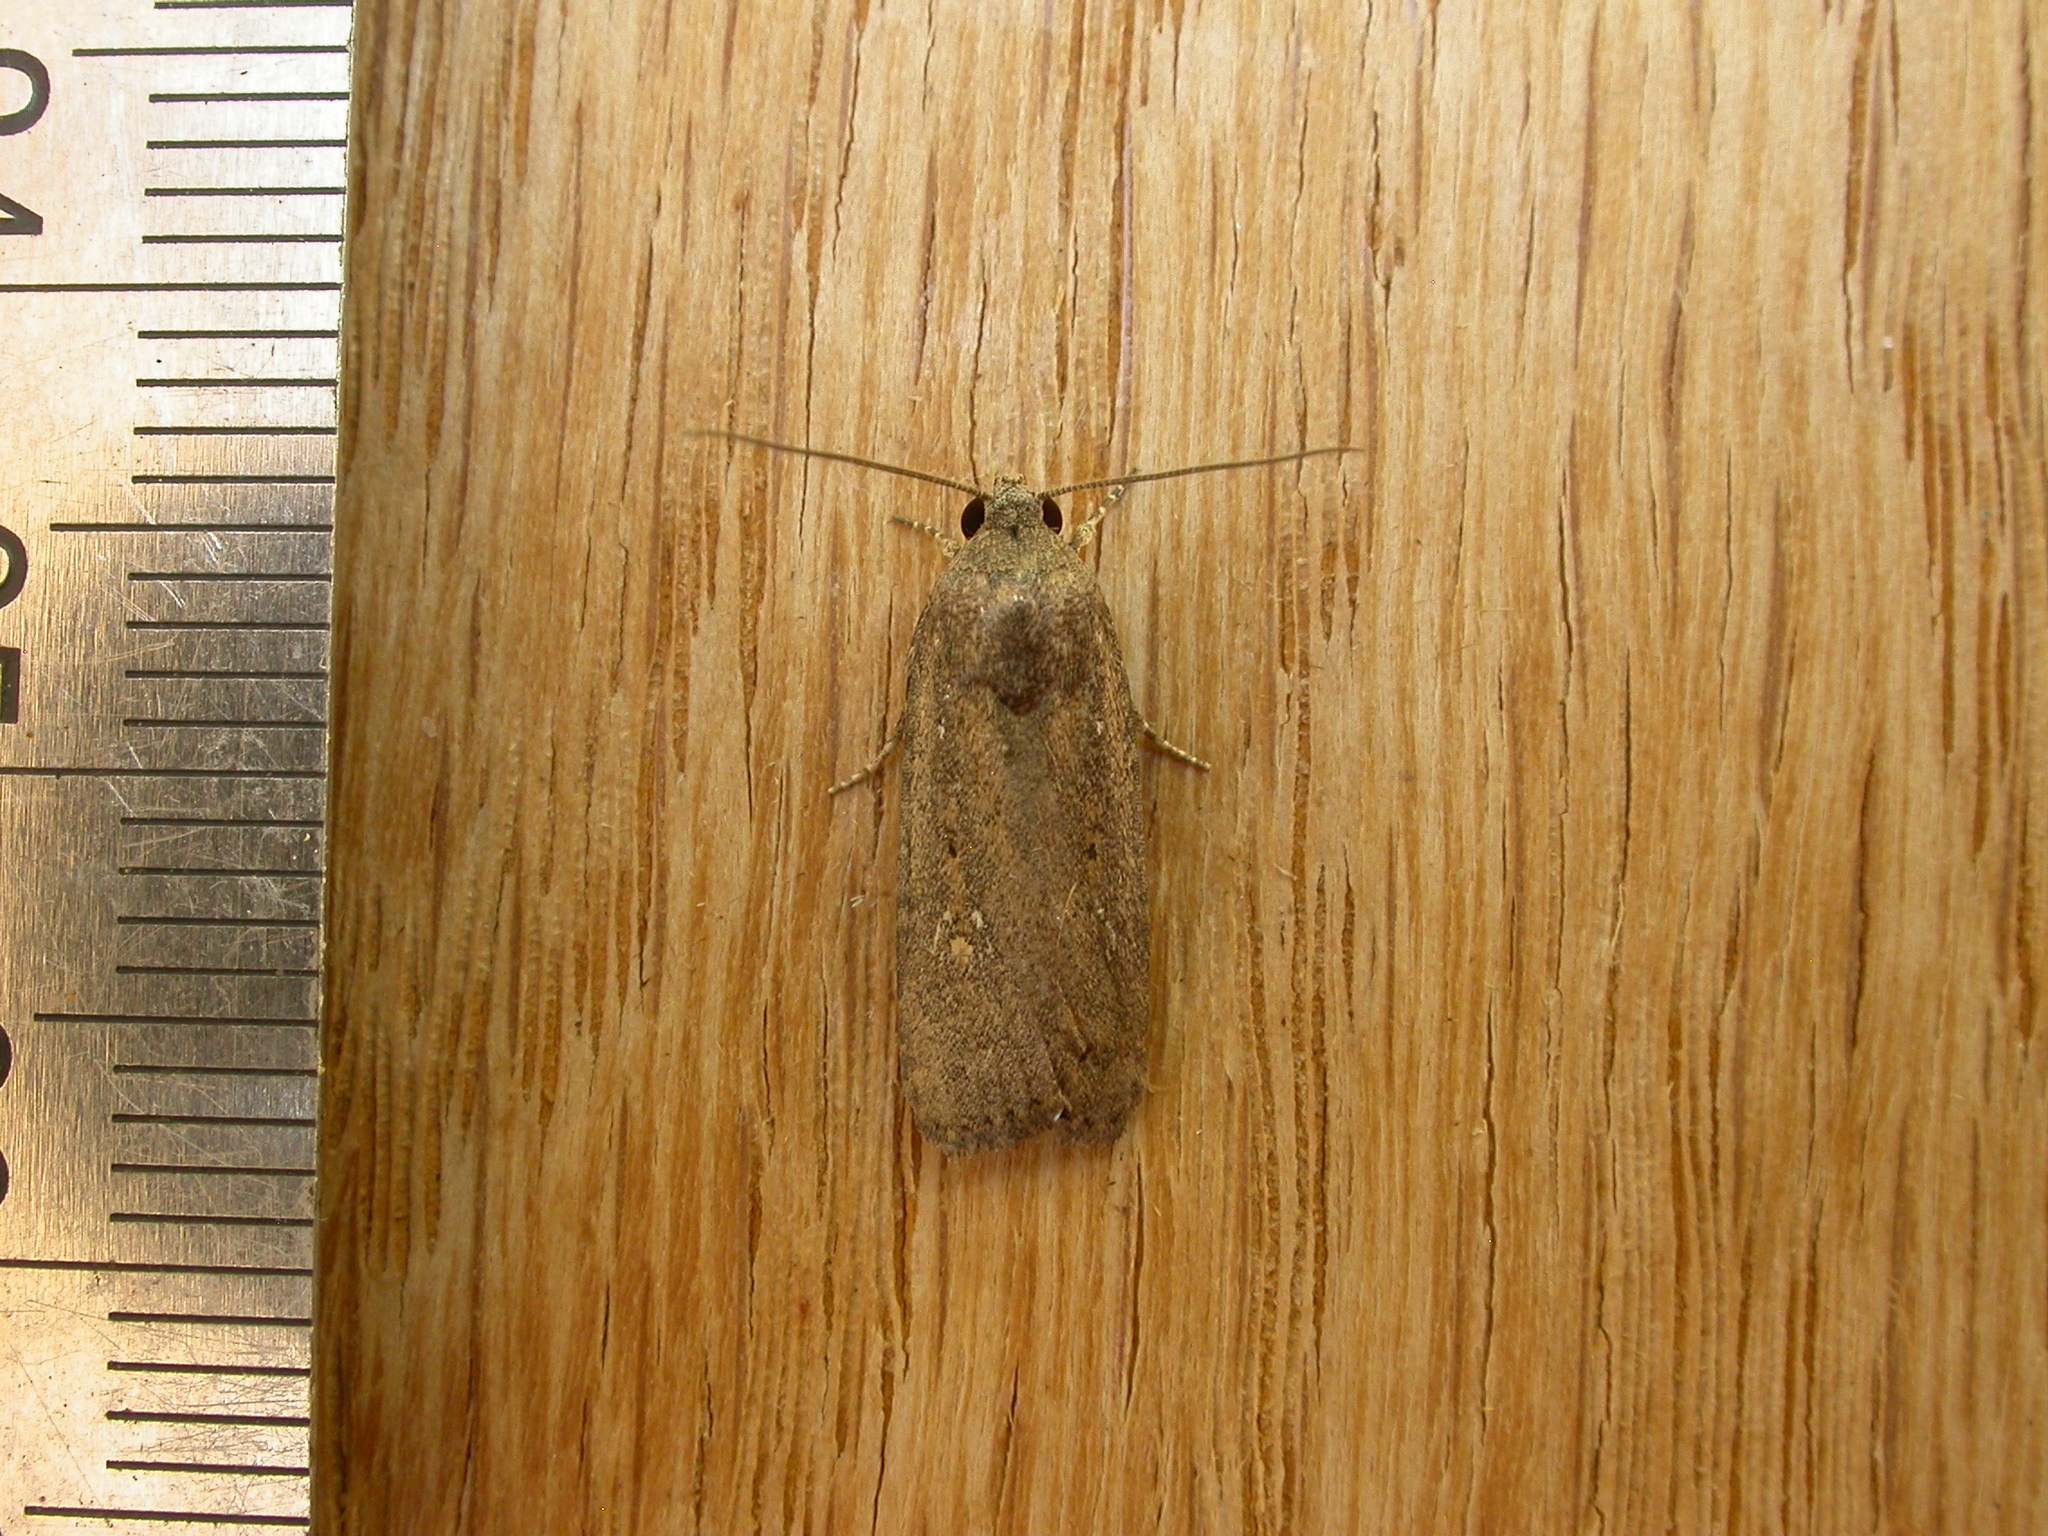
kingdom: Animalia
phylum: Arthropoda
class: Insecta
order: Lepidoptera
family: Noctuidae
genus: Athetis
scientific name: Athetis tenuis
